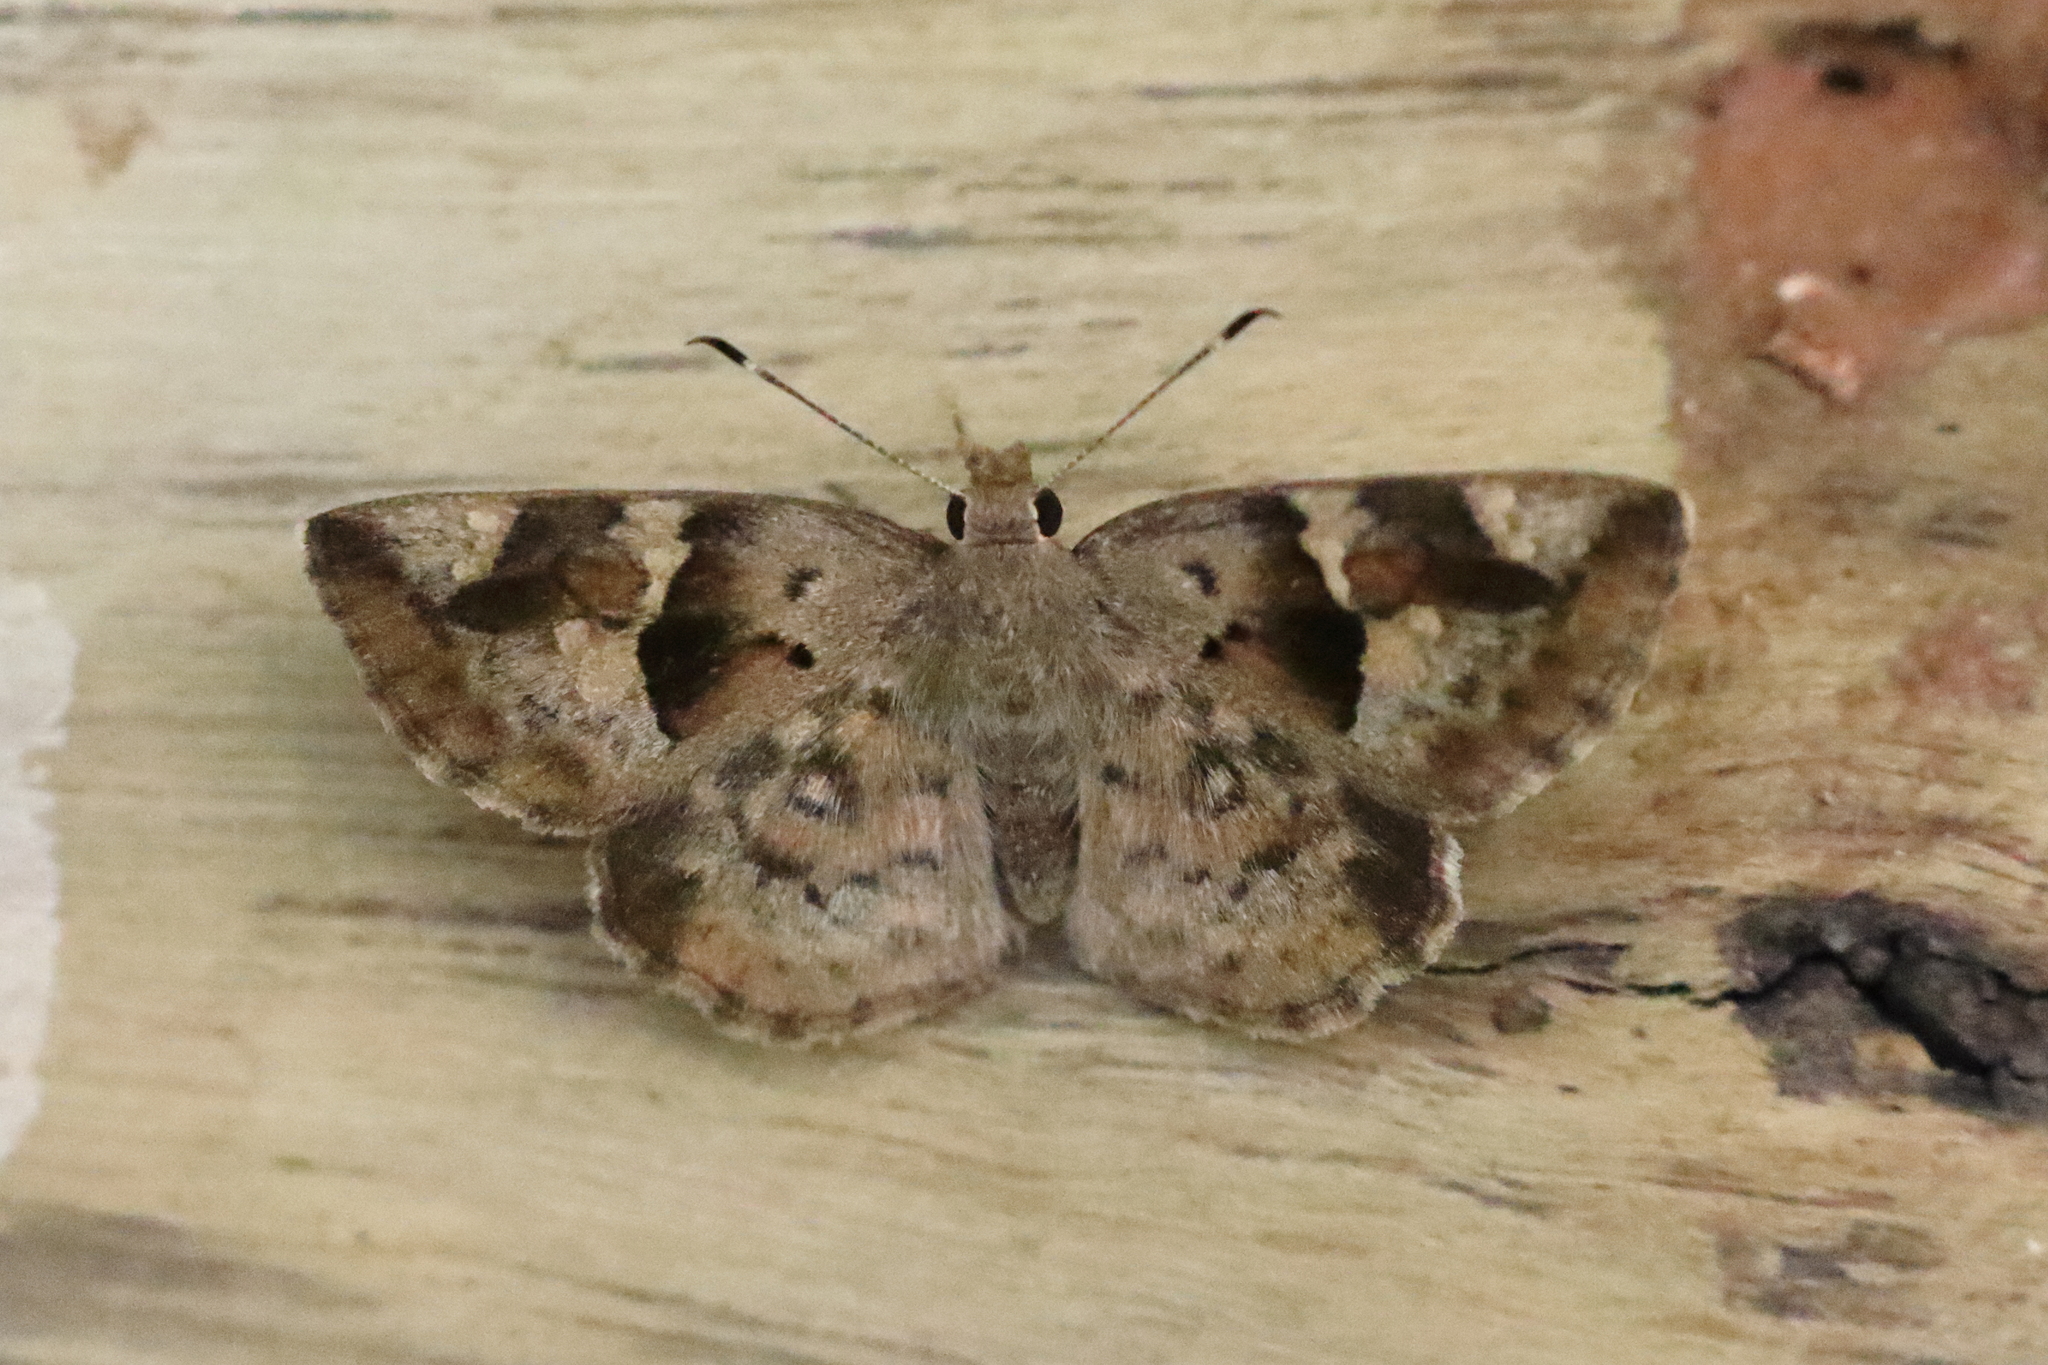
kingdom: Animalia
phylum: Arthropoda
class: Insecta
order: Lepidoptera
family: Hesperiidae
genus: Sarangesa
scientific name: Sarangesa motozi
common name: Forest elfin
